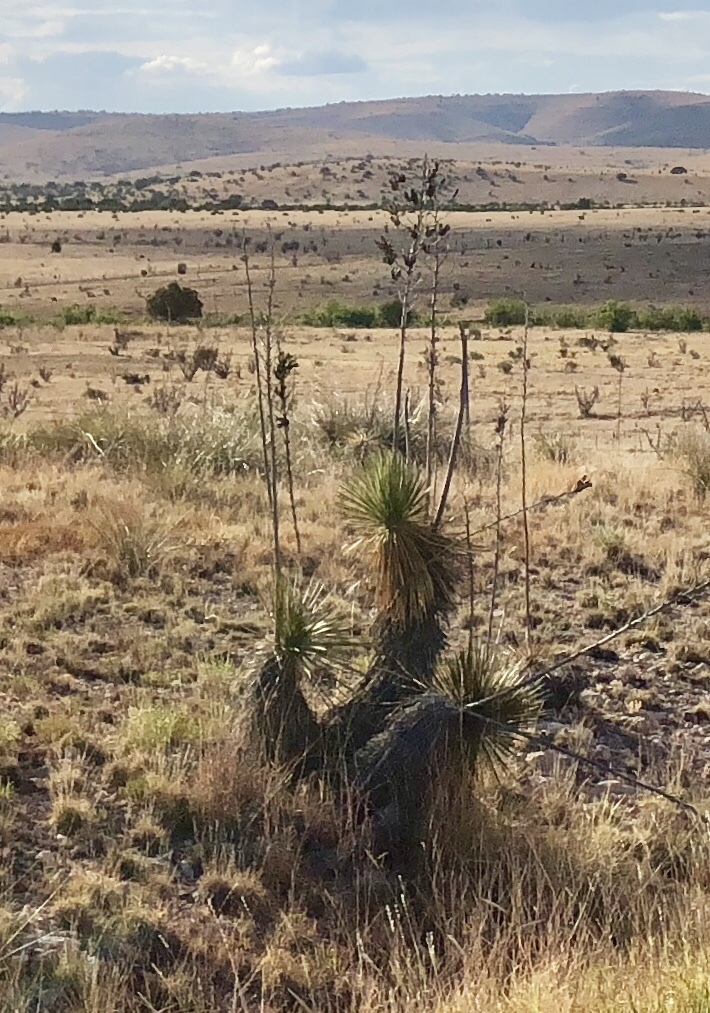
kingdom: Plantae
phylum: Tracheophyta
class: Liliopsida
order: Asparagales
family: Asparagaceae
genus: Yucca
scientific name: Yucca elata
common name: Palmella
